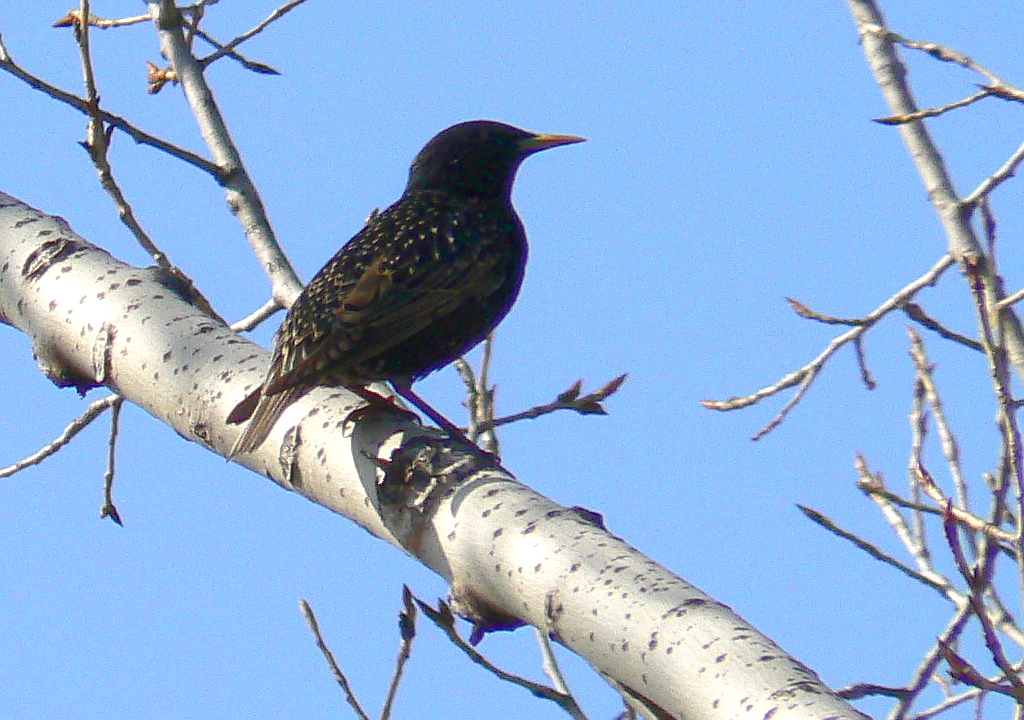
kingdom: Animalia
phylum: Chordata
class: Aves
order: Passeriformes
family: Sturnidae
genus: Sturnus
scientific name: Sturnus vulgaris
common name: Common starling
